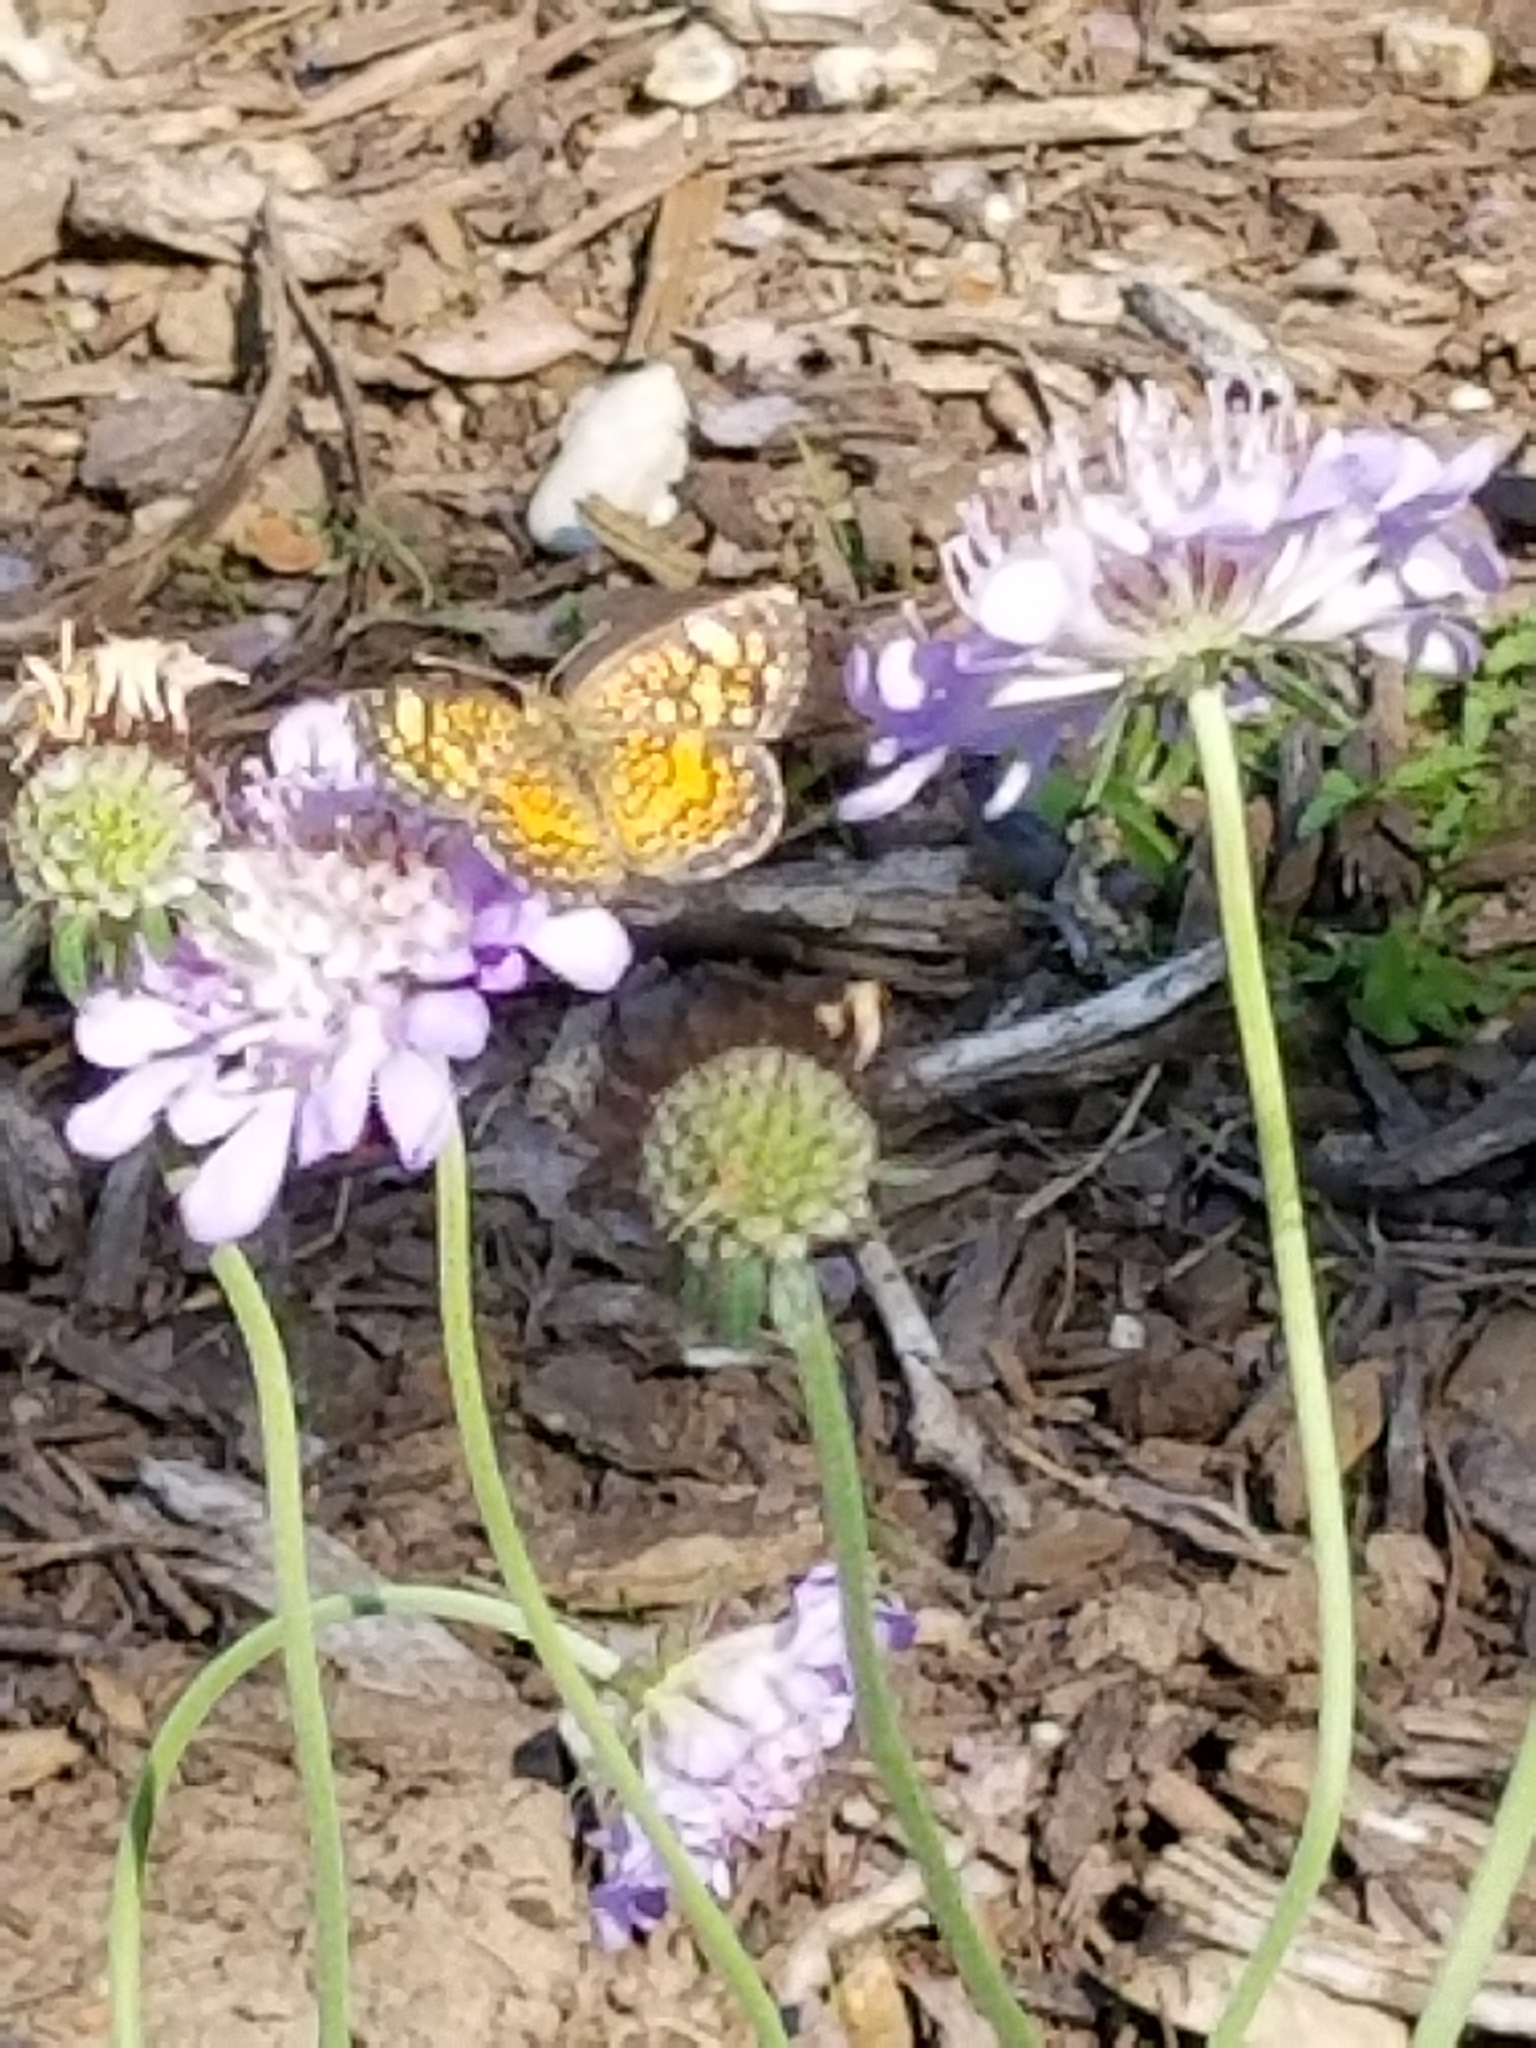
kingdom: Animalia
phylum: Arthropoda
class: Insecta
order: Lepidoptera
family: Nymphalidae
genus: Phyciodes
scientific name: Phyciodes tharos
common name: Pearl crescent
